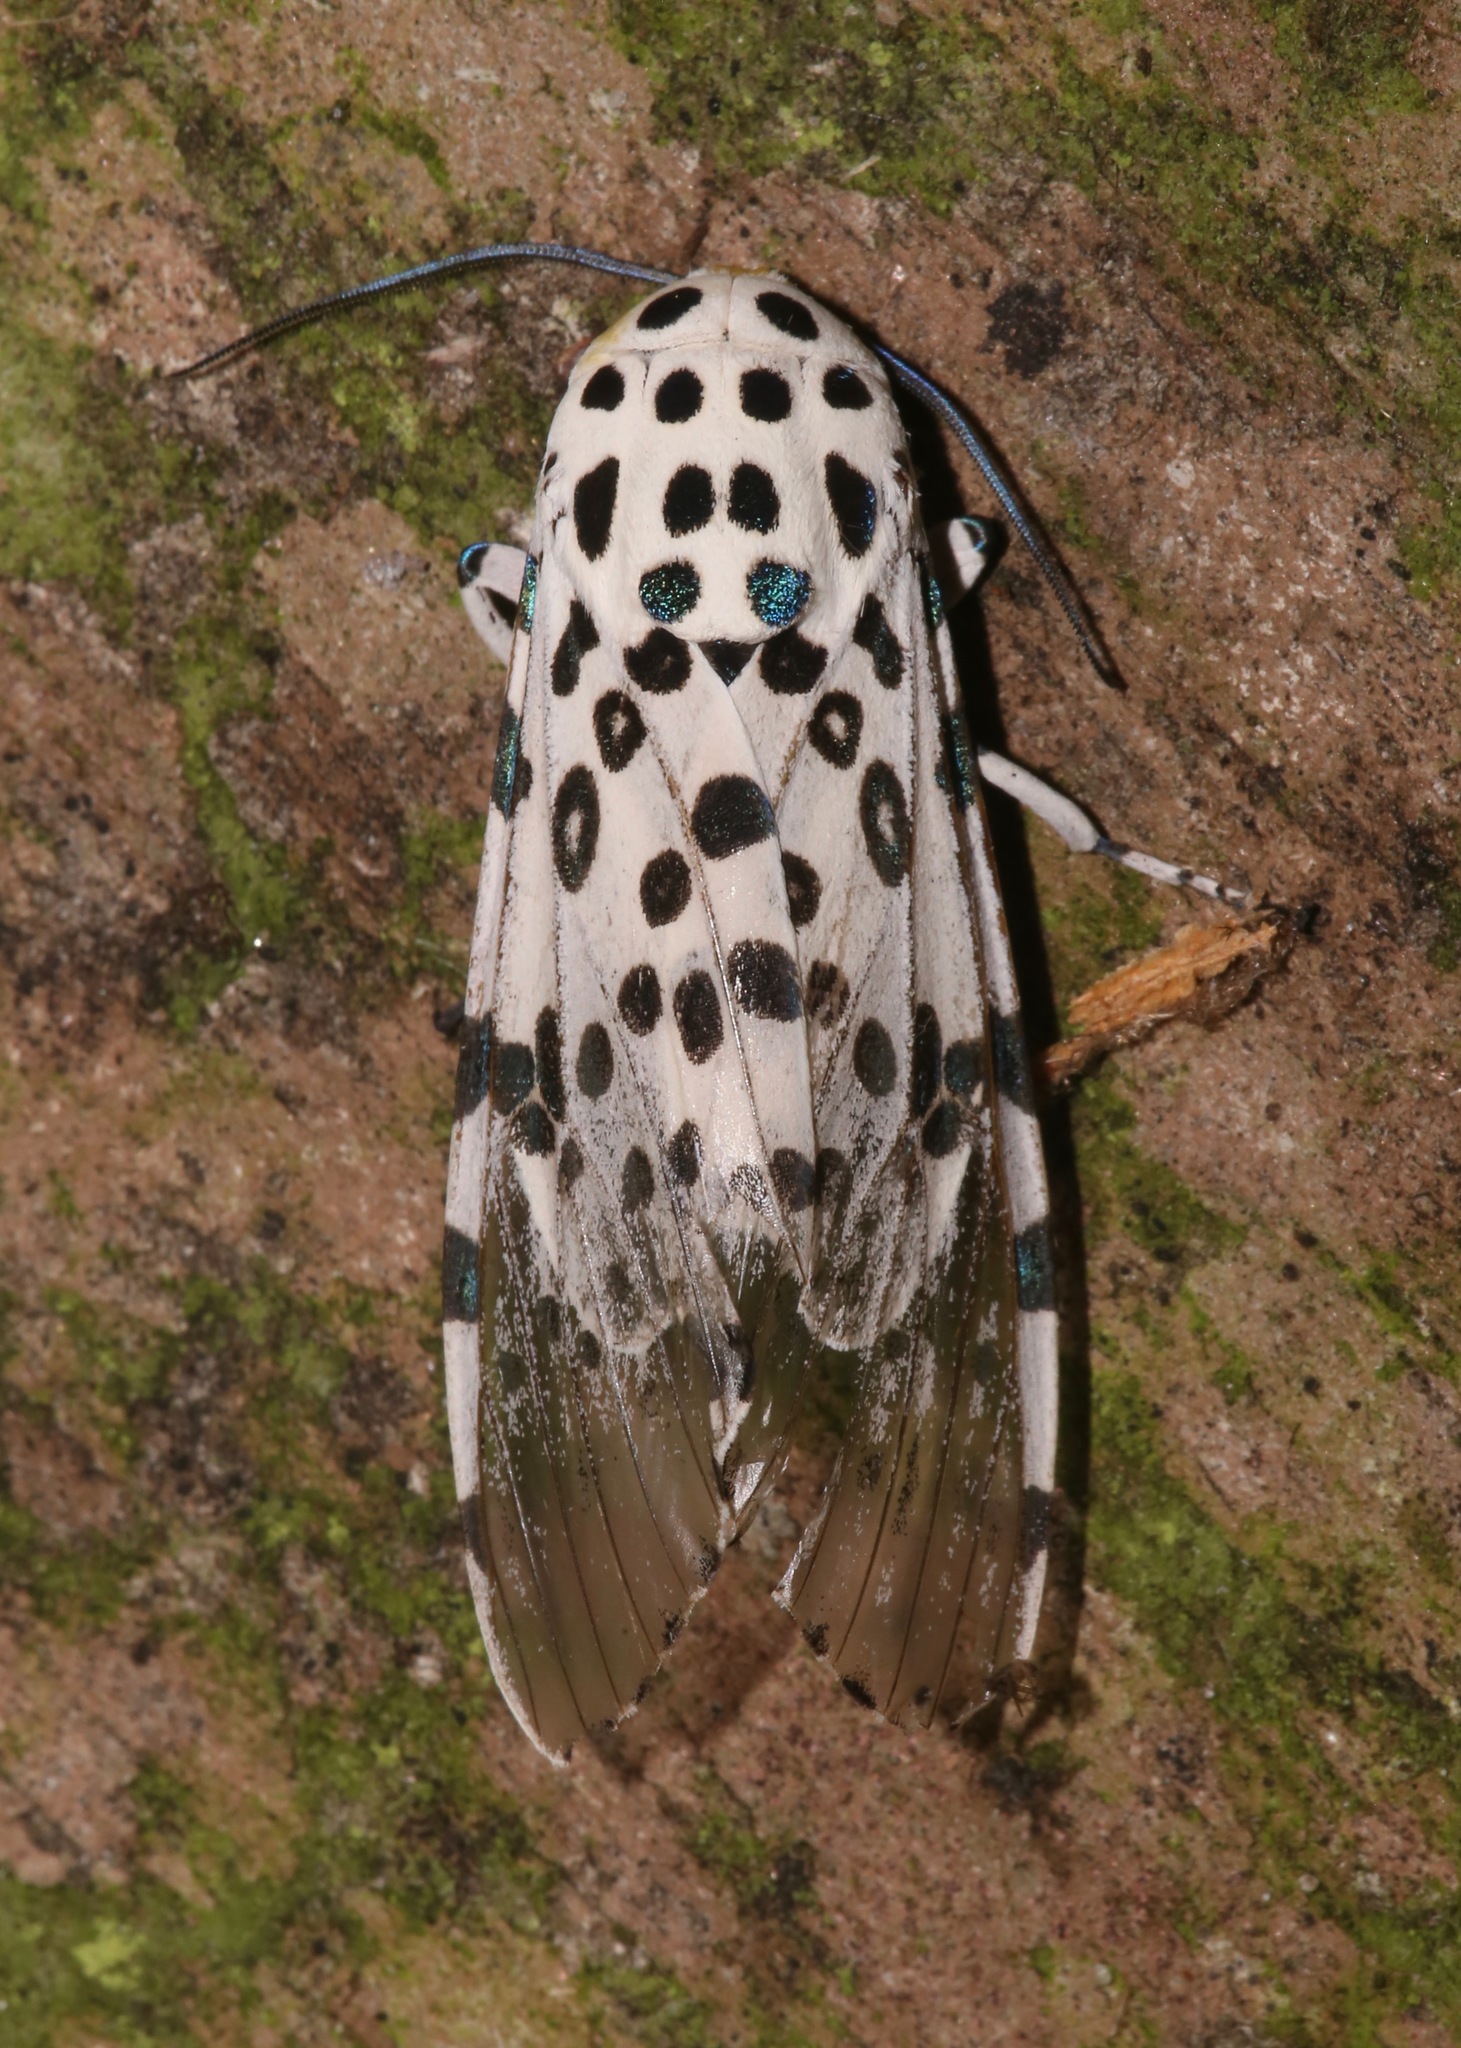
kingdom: Animalia
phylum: Arthropoda
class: Insecta
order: Lepidoptera
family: Erebidae
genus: Hypercompe
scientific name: Hypercompe scribonia
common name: Giant leopard moth
